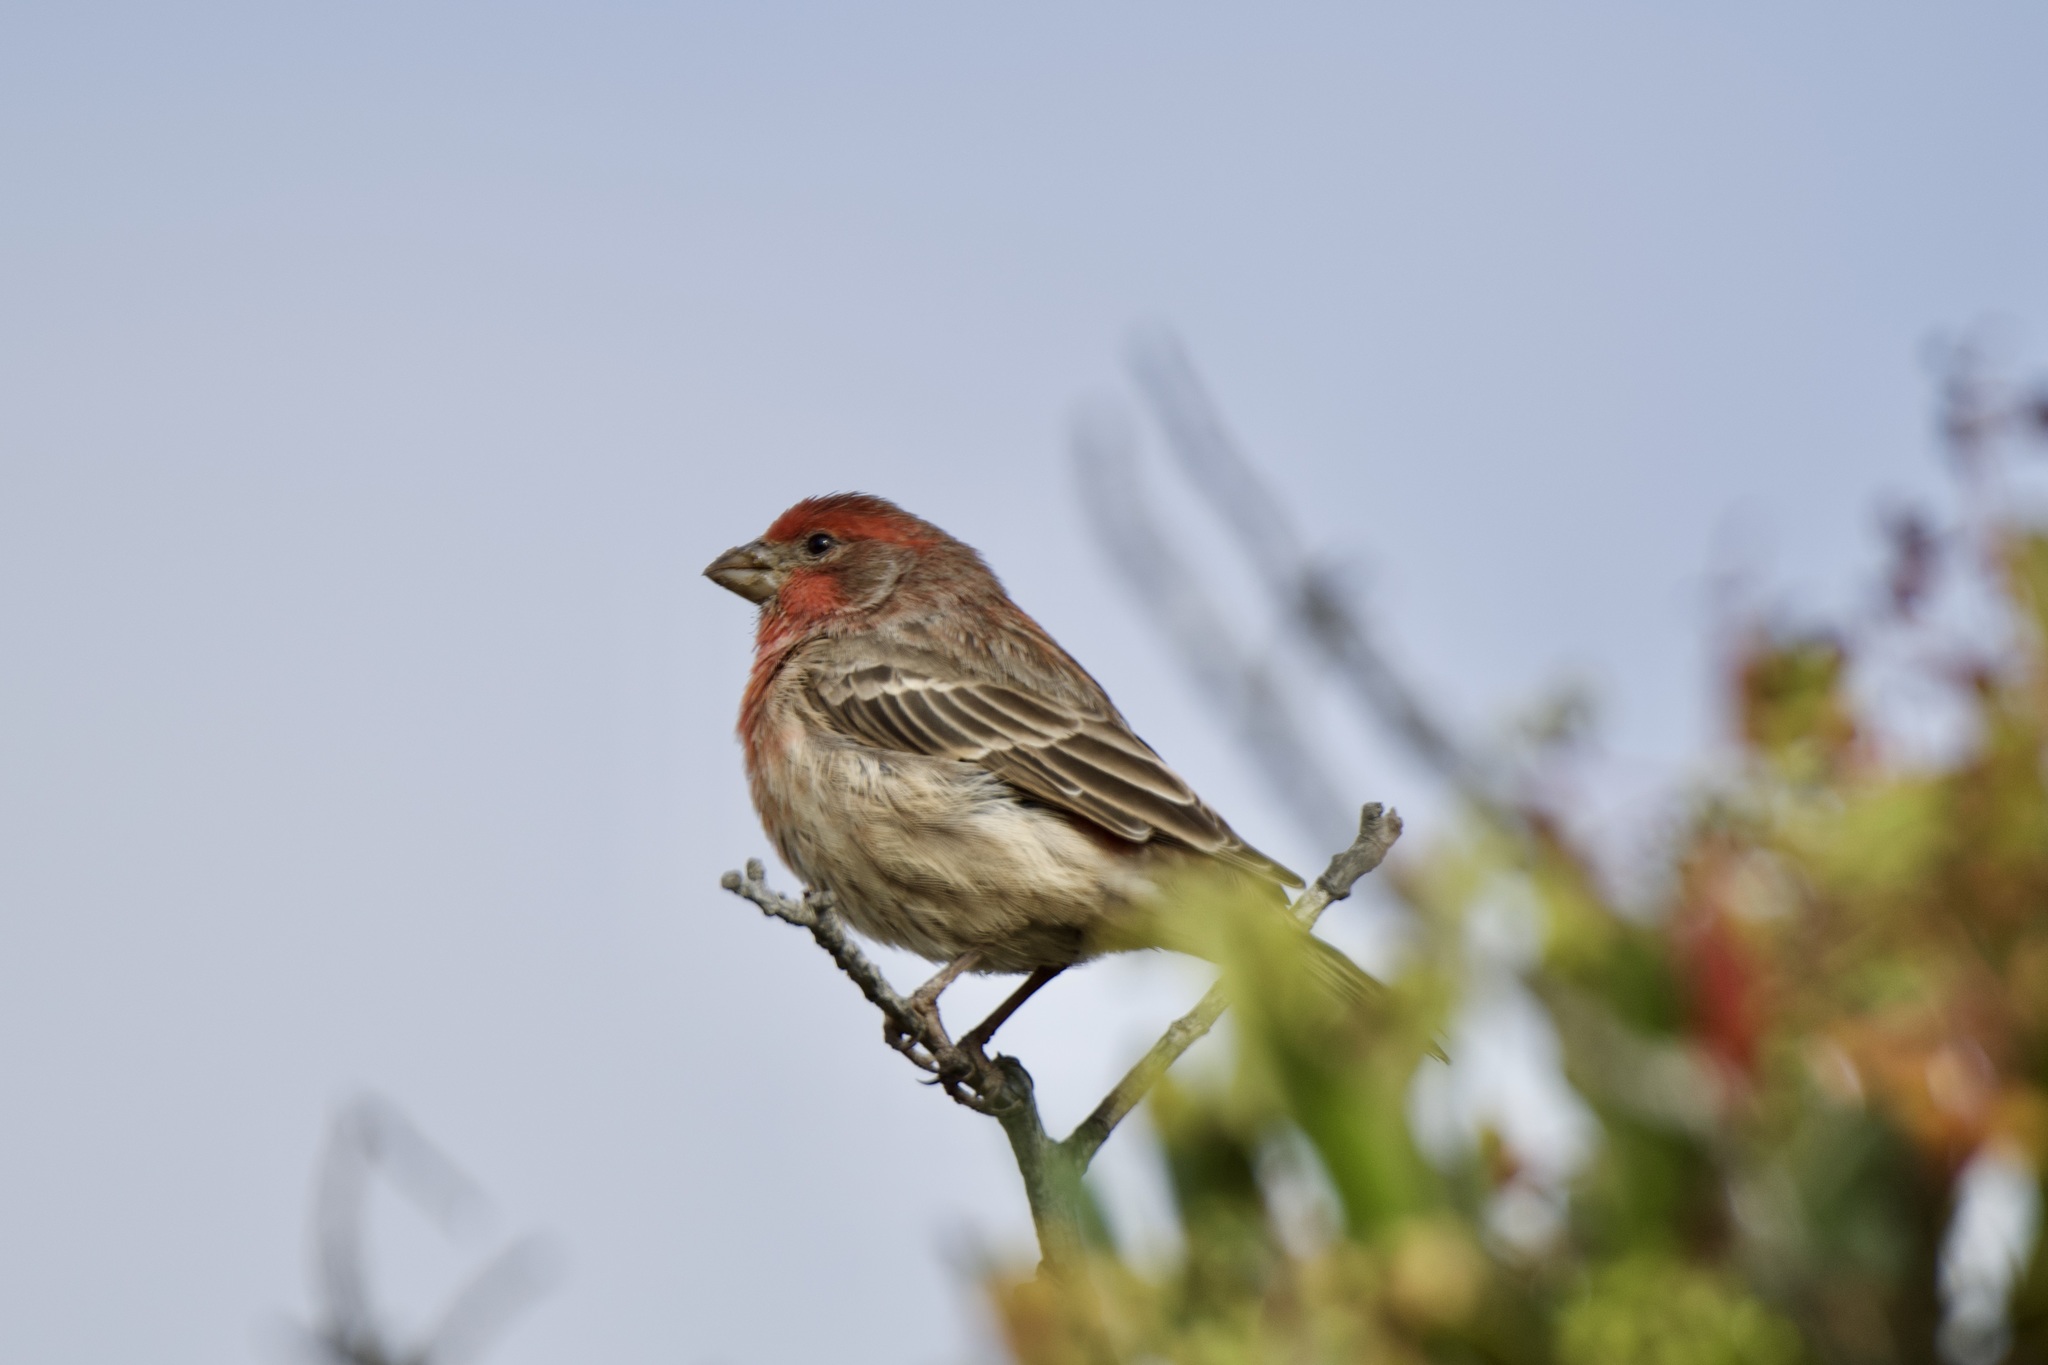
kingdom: Animalia
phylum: Chordata
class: Aves
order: Passeriformes
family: Fringillidae
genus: Haemorhous
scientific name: Haemorhous mexicanus
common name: House finch
